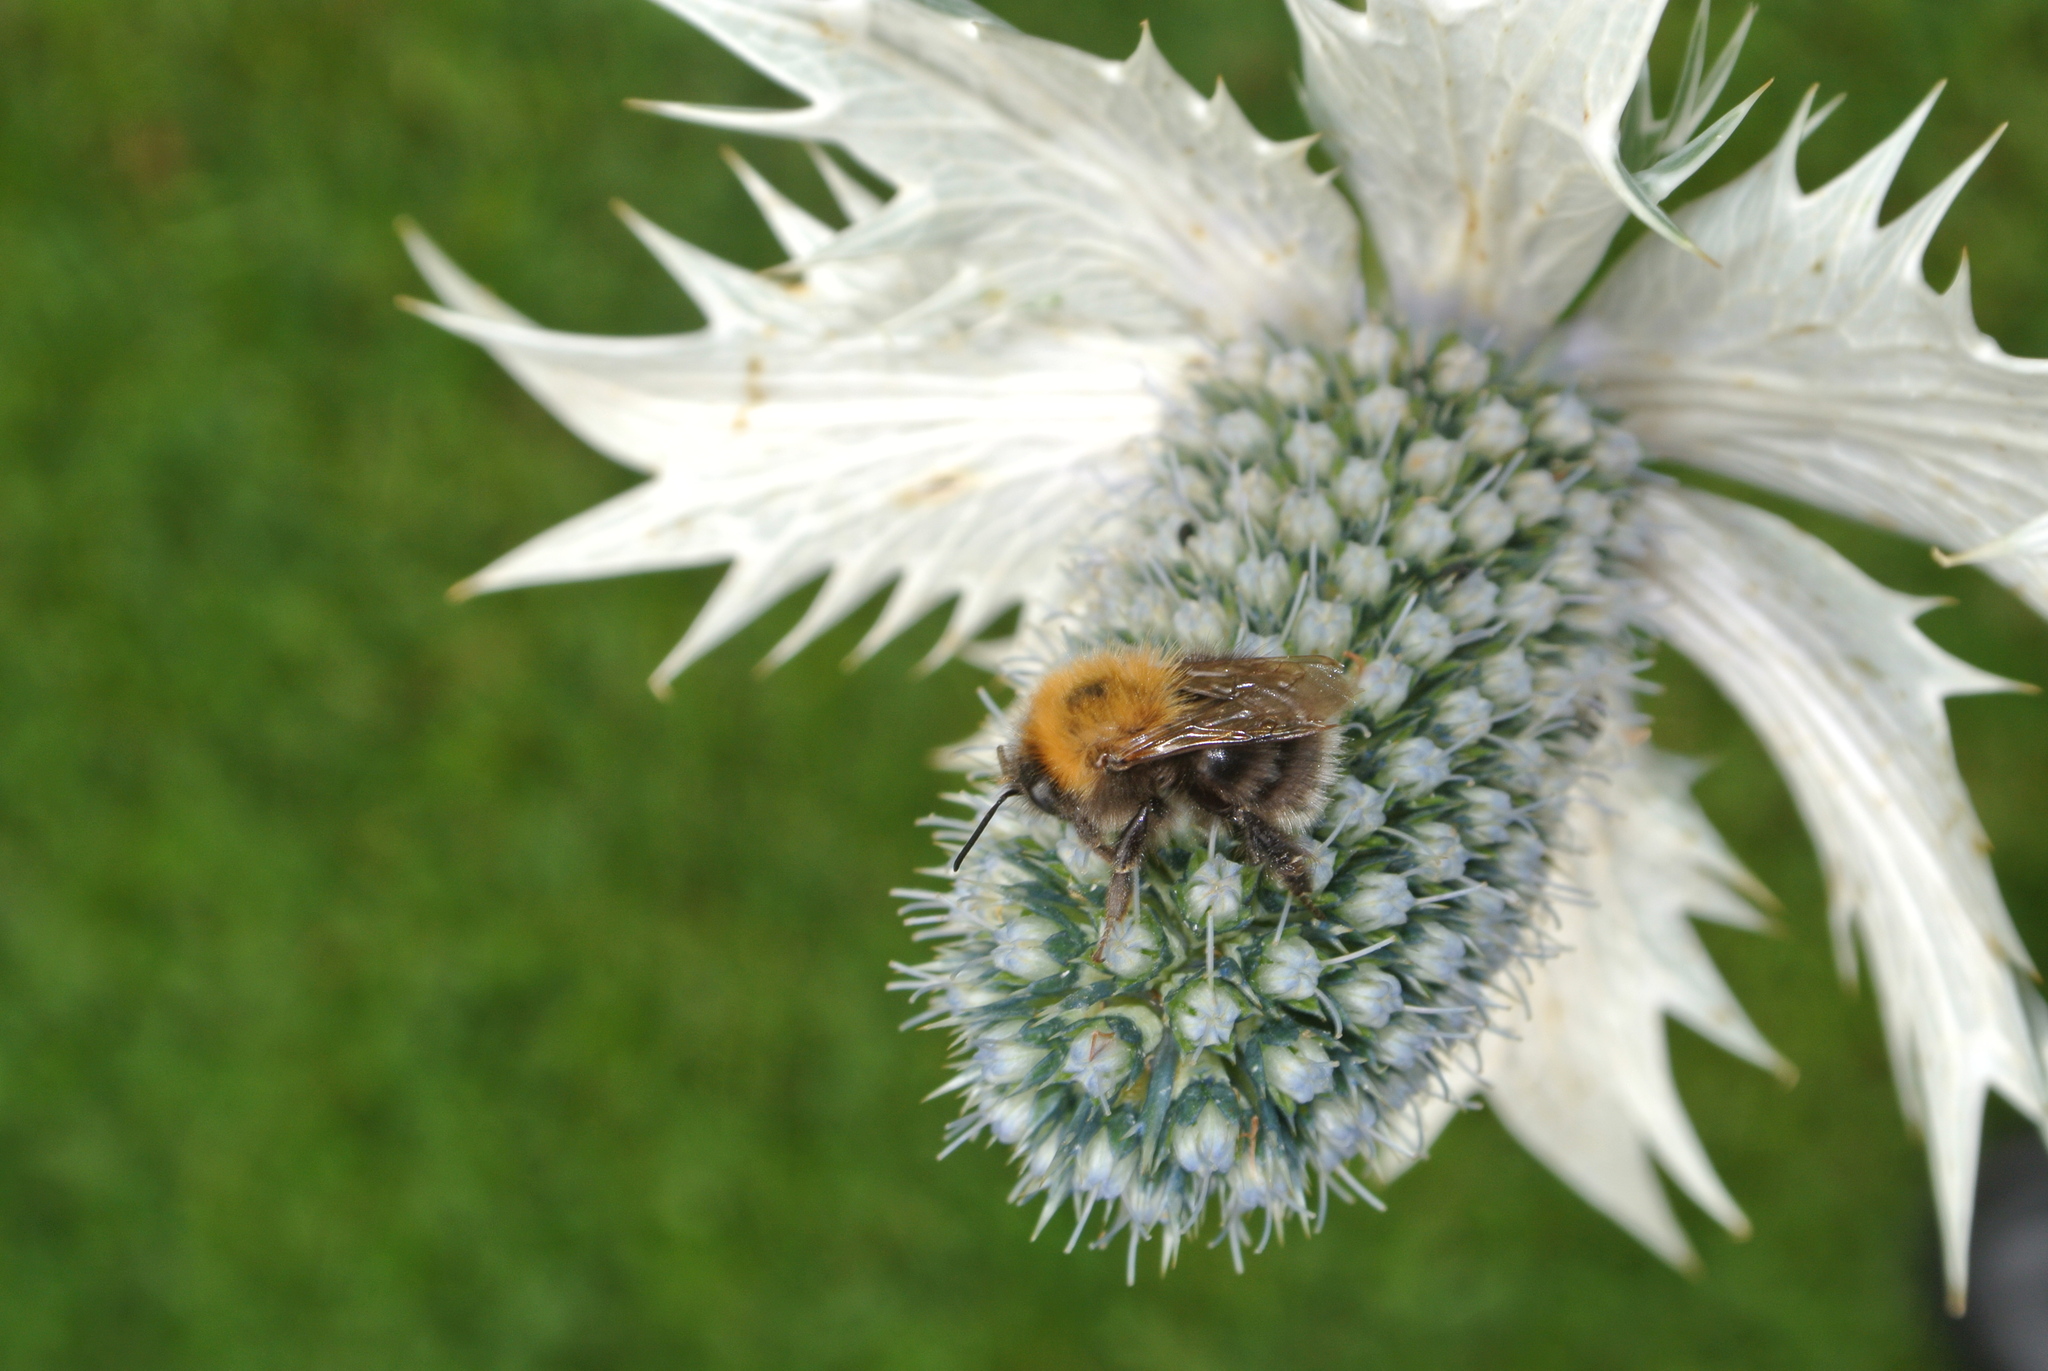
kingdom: Animalia
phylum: Arthropoda
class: Insecta
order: Hymenoptera
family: Apidae
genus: Bombus
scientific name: Bombus hypnorum
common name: New garden bumblebee
